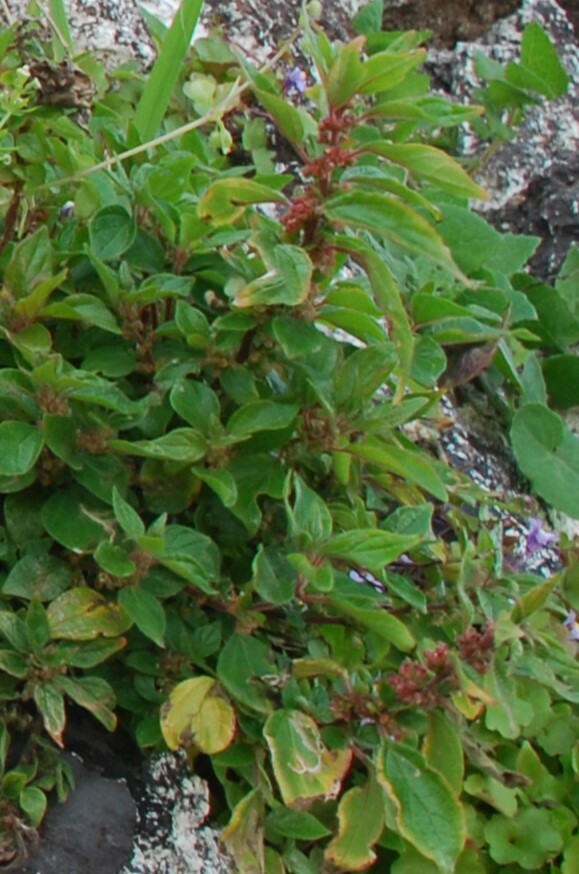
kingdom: Plantae
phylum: Tracheophyta
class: Magnoliopsida
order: Rosales
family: Urticaceae
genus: Parietaria
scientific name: Parietaria judaica
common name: Pellitory-of-the-wall
